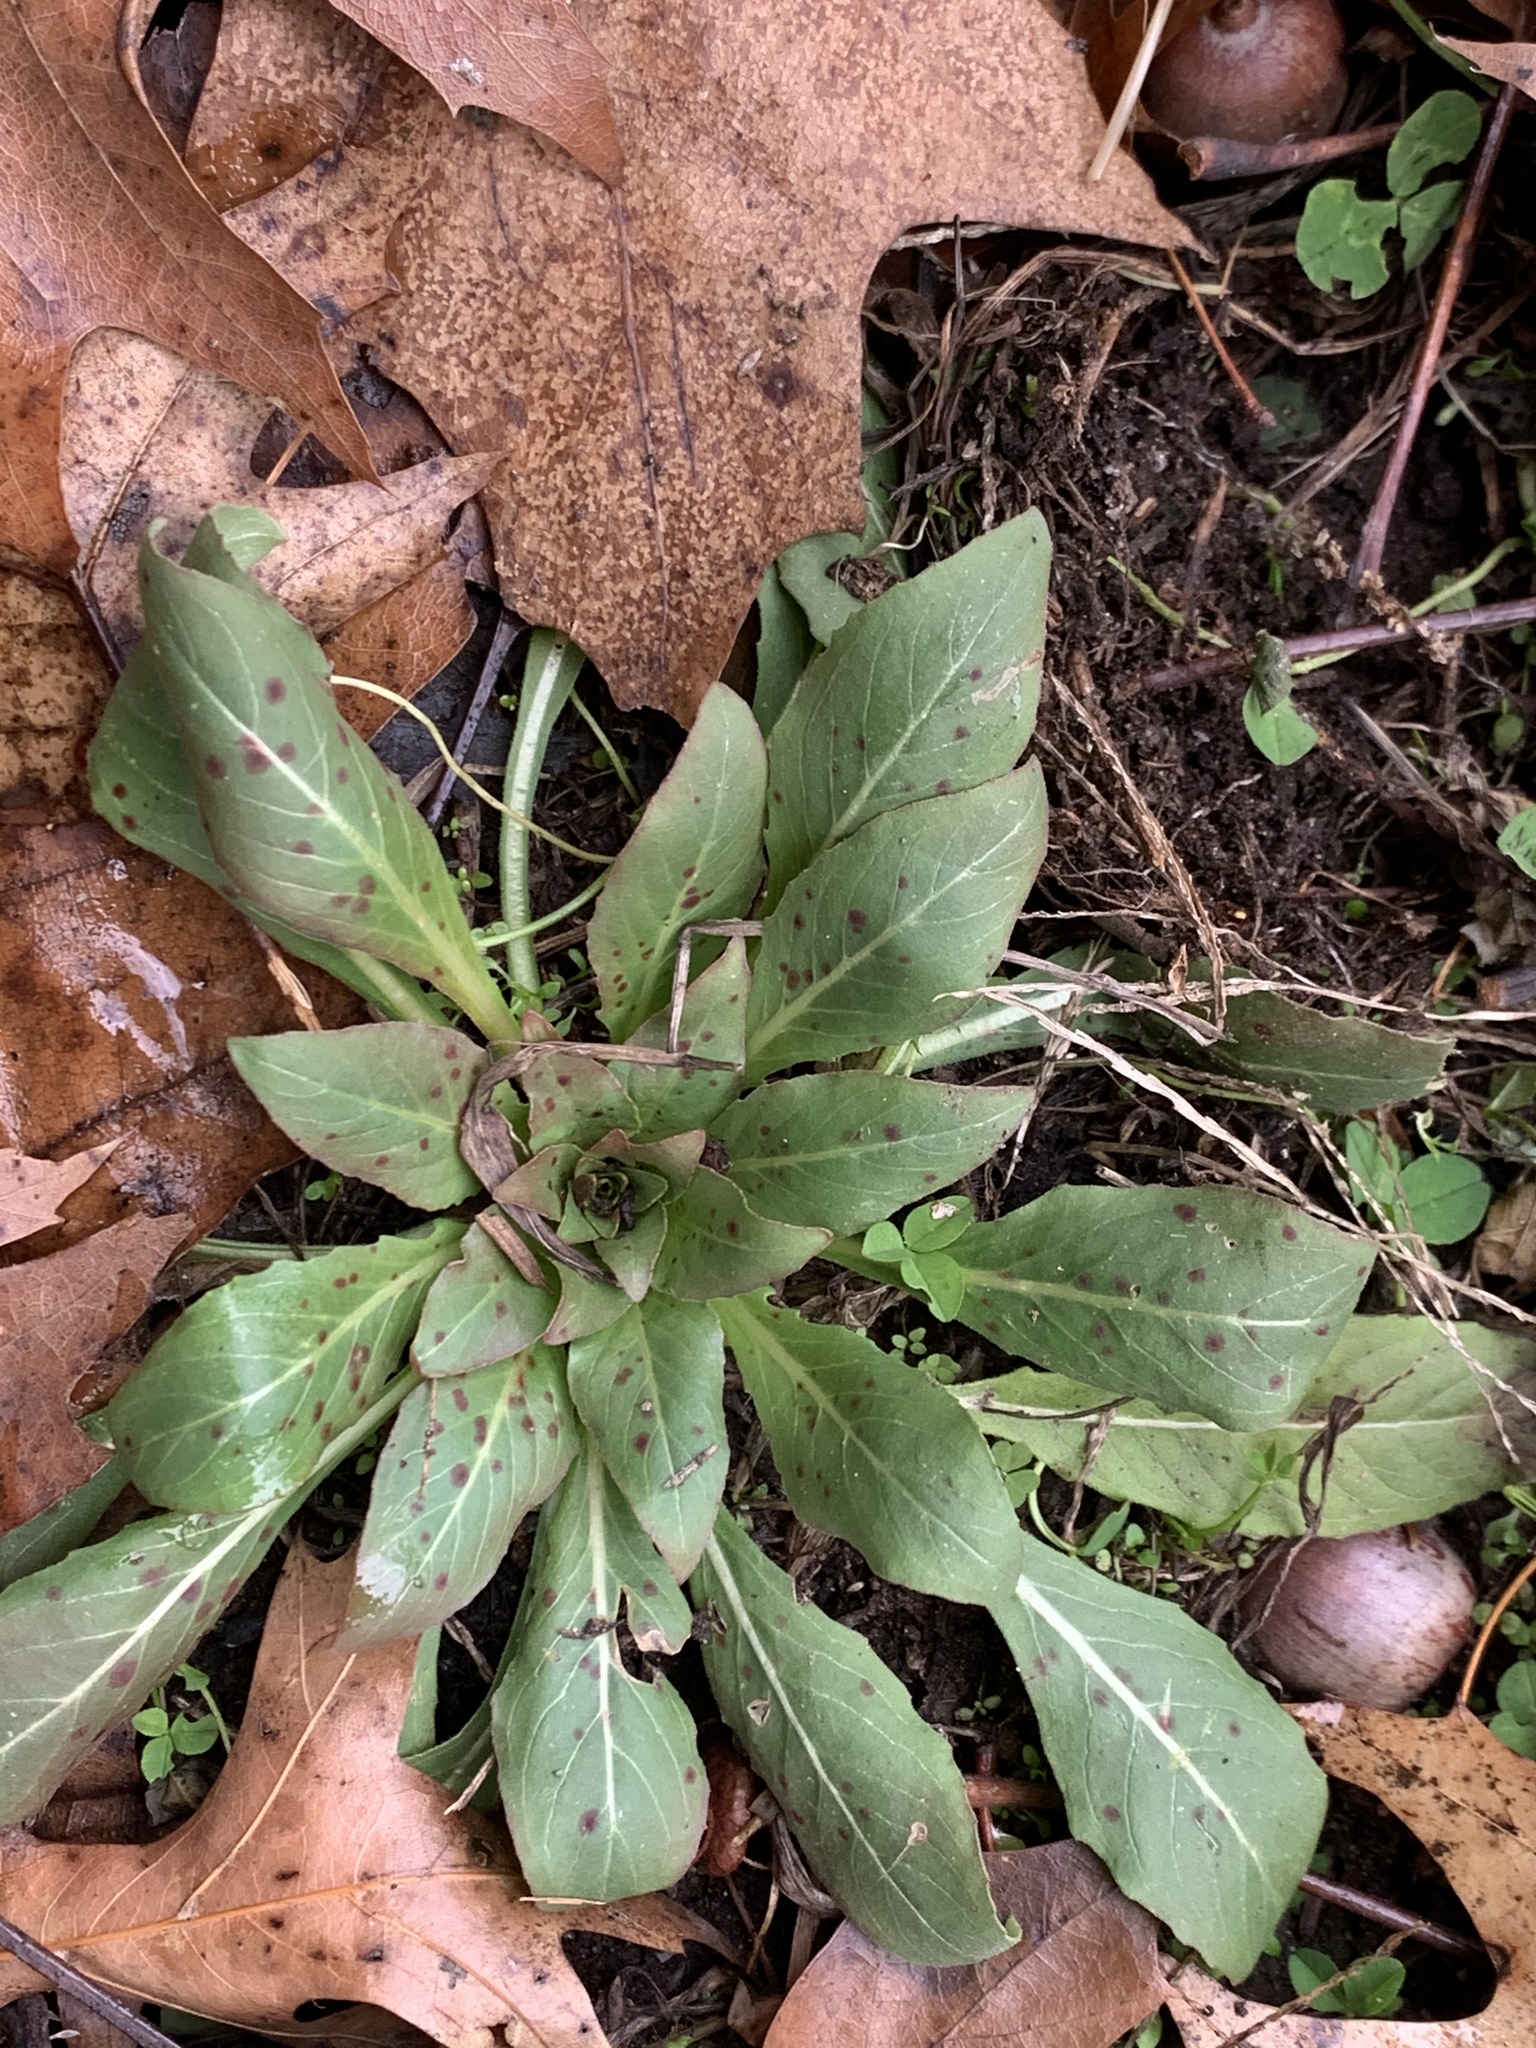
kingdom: Plantae
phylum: Tracheophyta
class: Magnoliopsida
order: Myrtales
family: Onagraceae
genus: Oenothera
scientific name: Oenothera biennis
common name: Common evening-primrose
